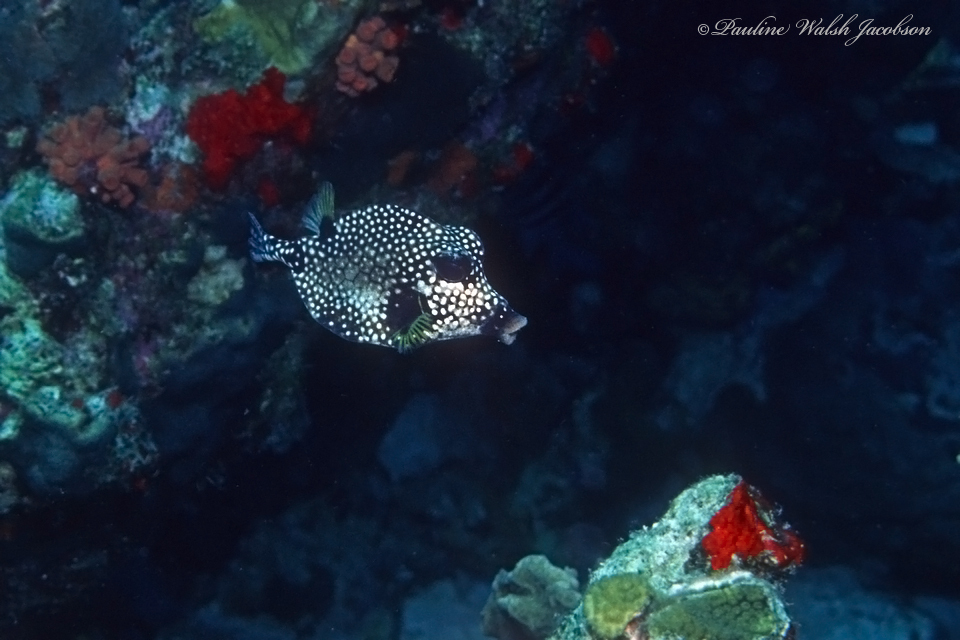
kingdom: Animalia
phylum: Chordata
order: Tetraodontiformes
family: Ostraciidae
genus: Lactophrys
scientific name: Lactophrys triqueter
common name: Smooth trunkfish
